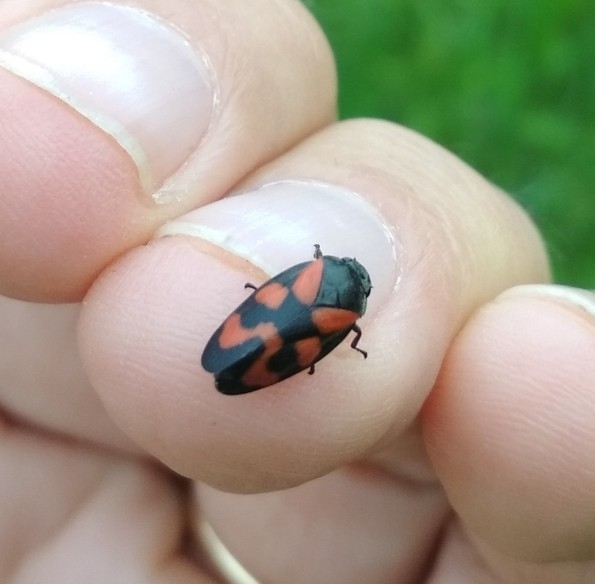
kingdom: Animalia
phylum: Arthropoda
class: Insecta
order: Hemiptera
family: Cercopidae
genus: Cercopis
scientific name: Cercopis vulnerata
